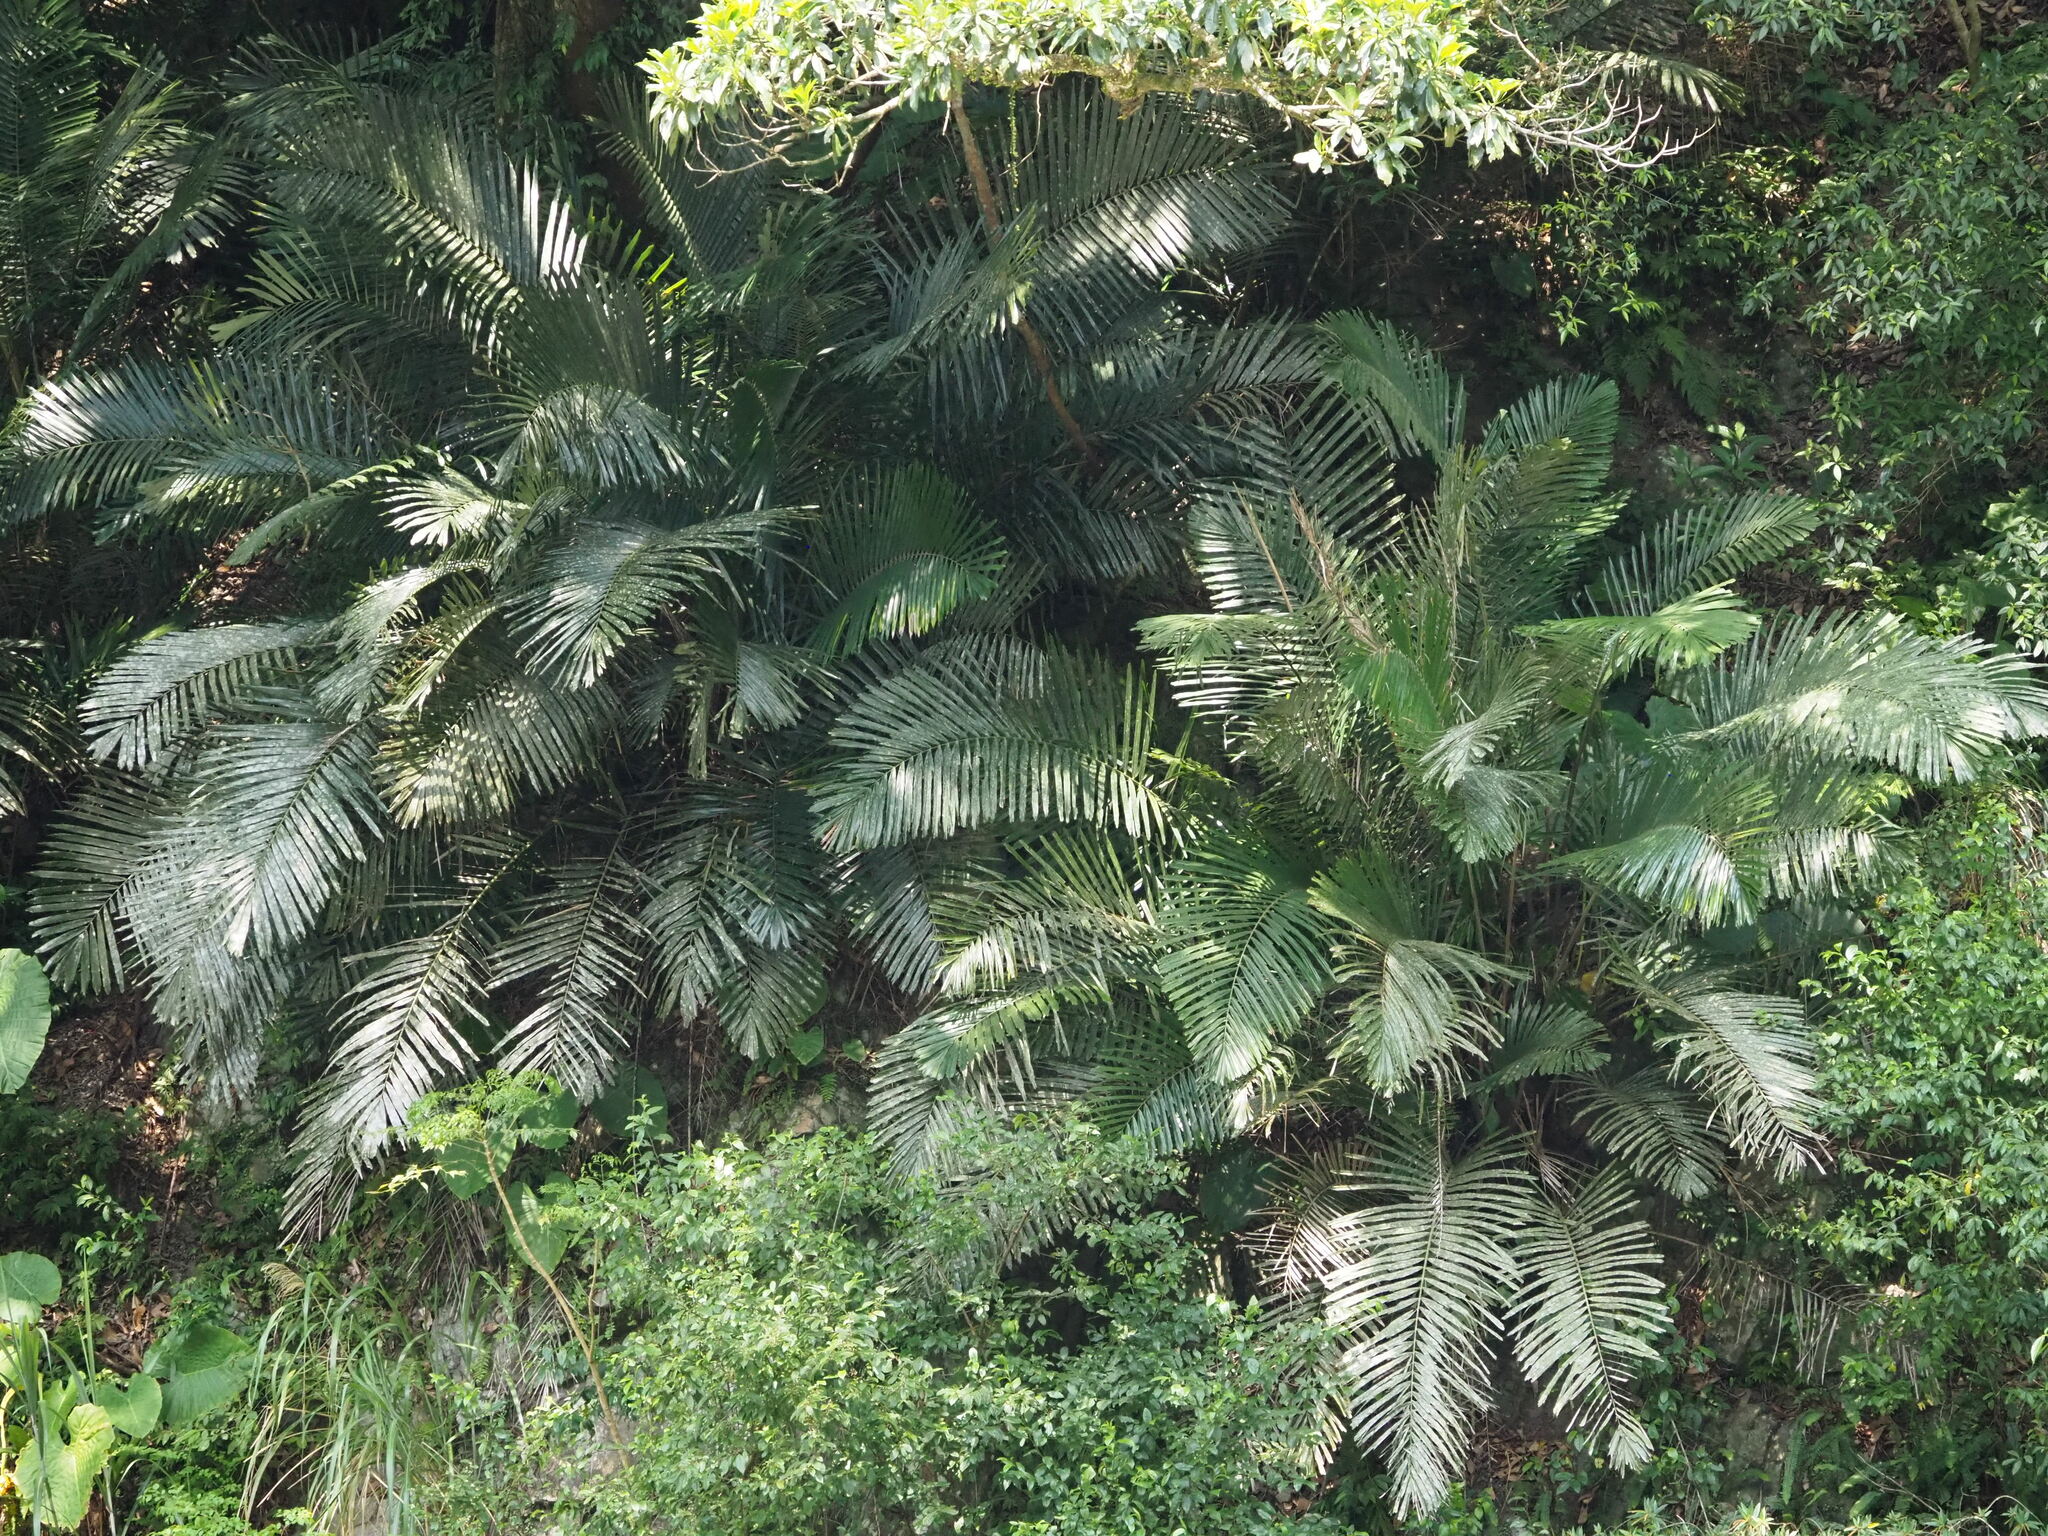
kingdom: Plantae
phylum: Tracheophyta
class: Liliopsida
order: Arecales
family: Arecaceae
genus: Arenga
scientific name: Arenga engleri
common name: Formosan sugar palm
